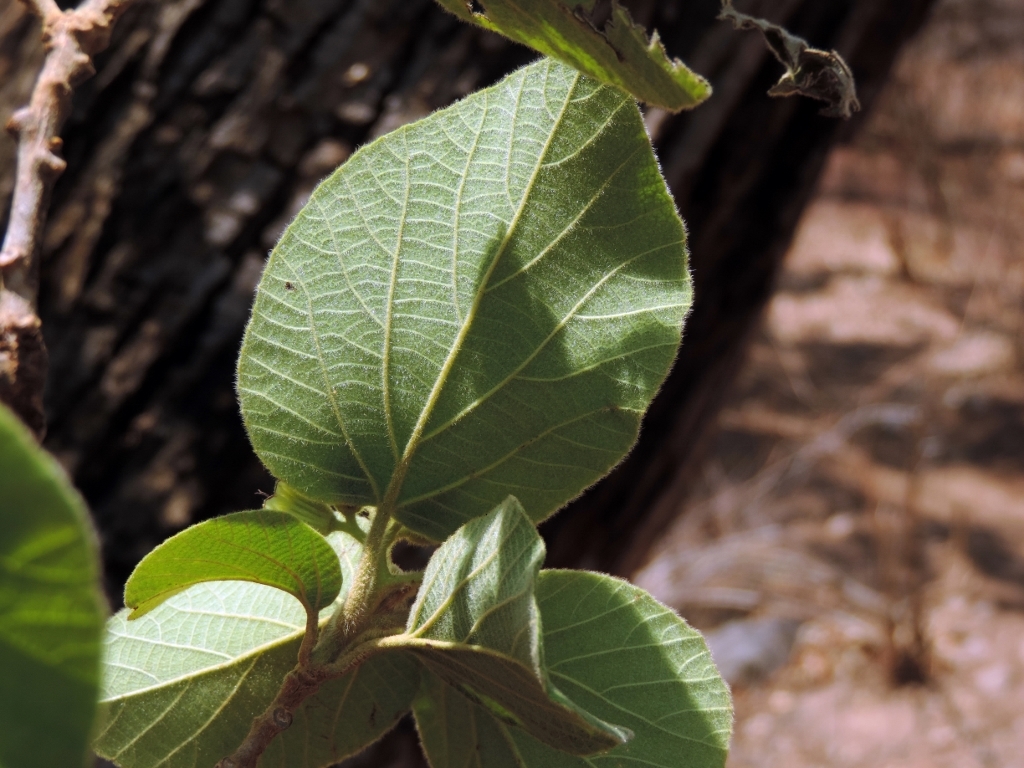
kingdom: Plantae
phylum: Tracheophyta
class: Magnoliopsida
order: Boraginales
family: Cordiaceae
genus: Cordia
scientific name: Cordia pilosissima
